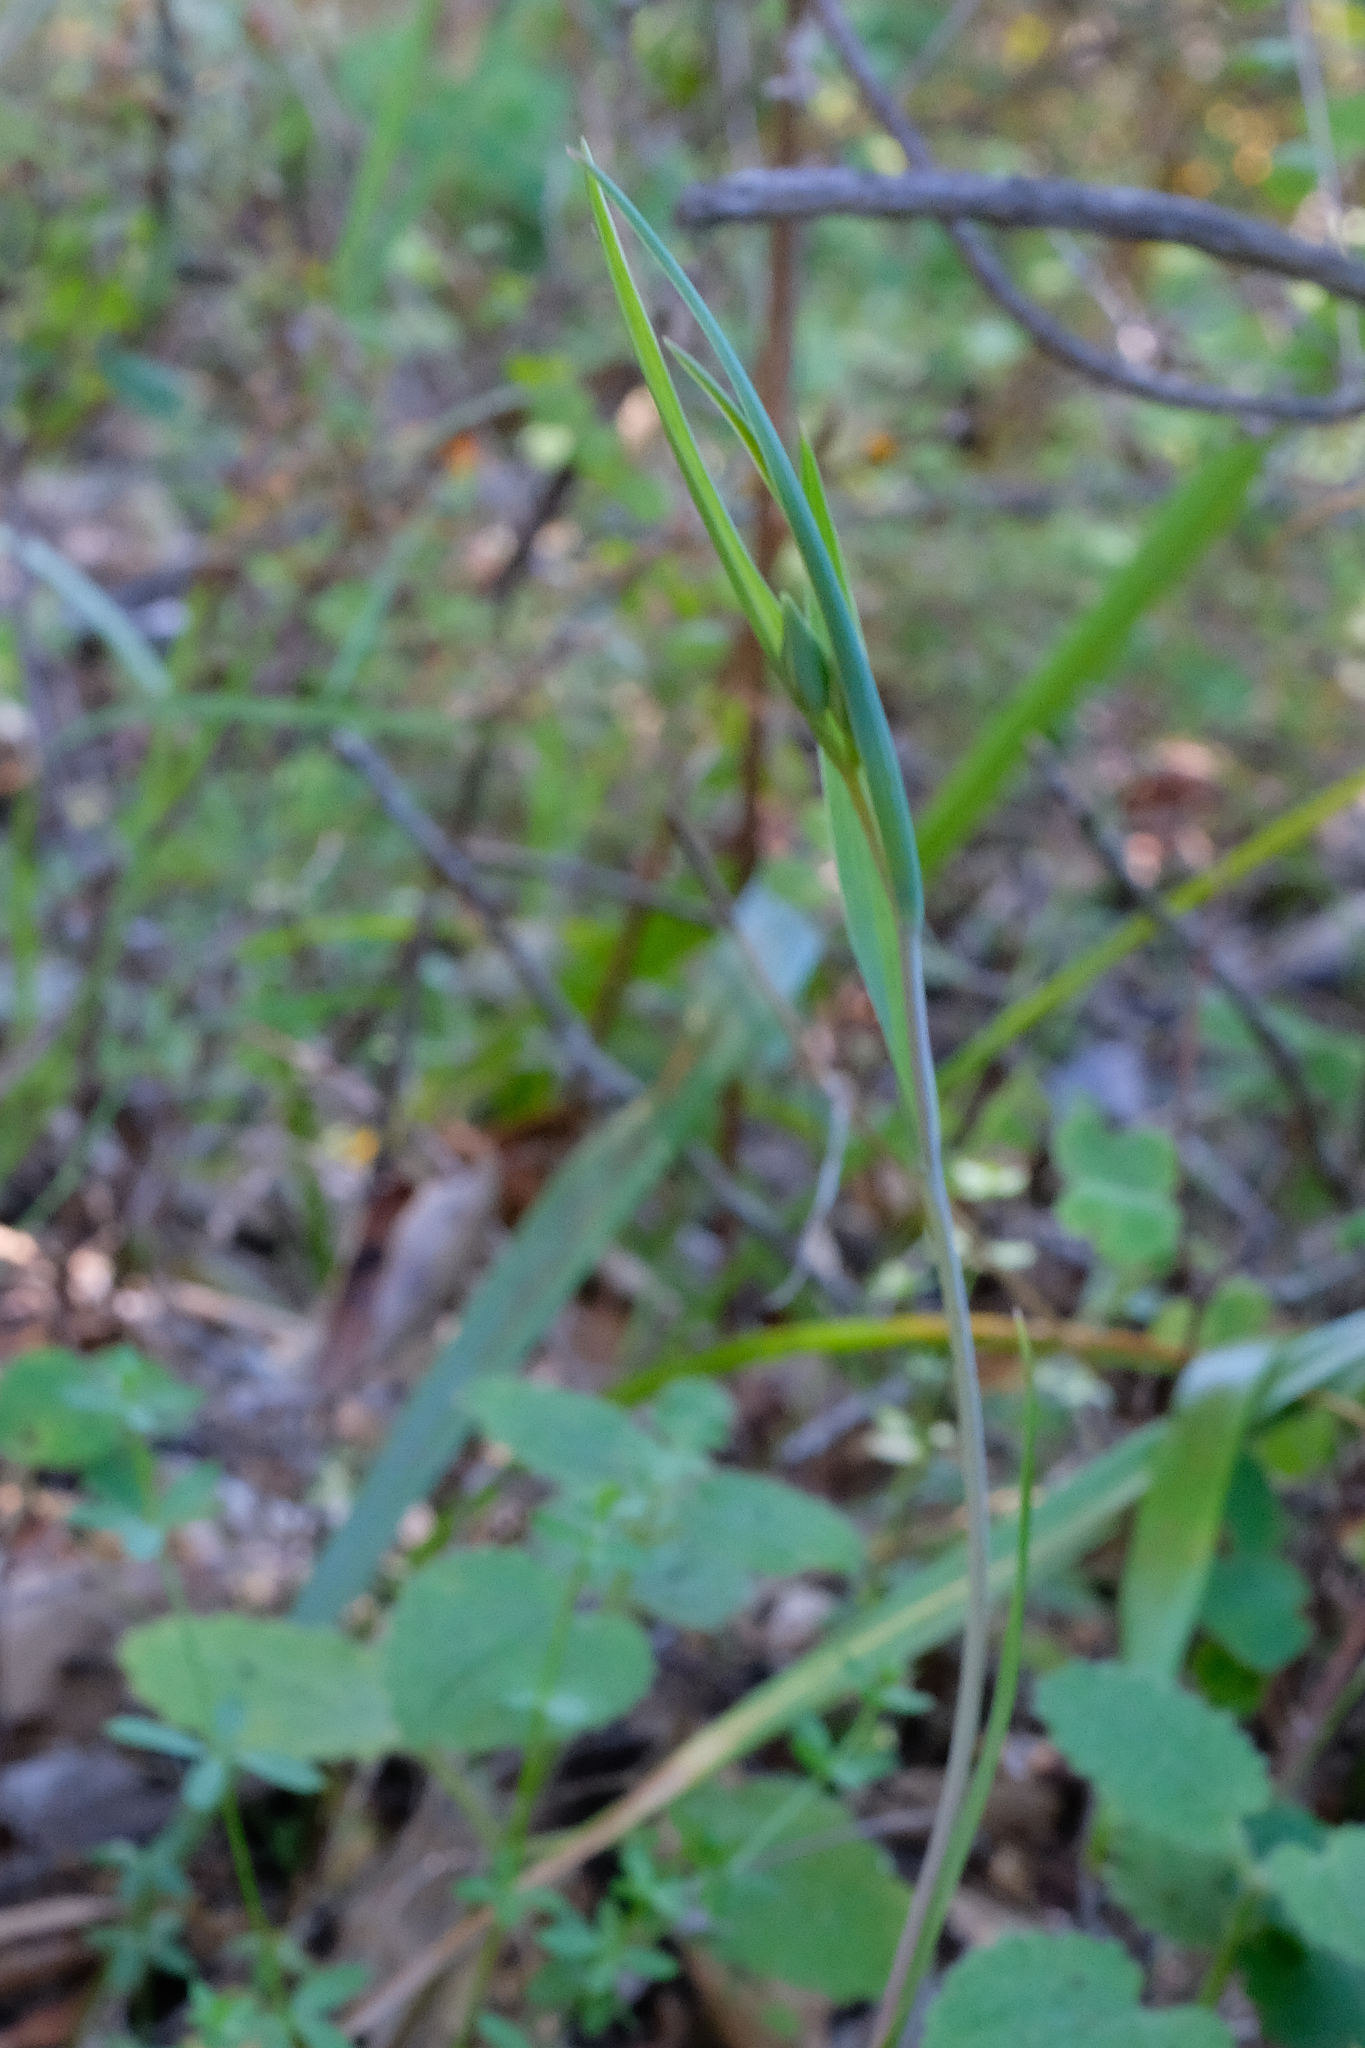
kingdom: Plantae
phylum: Tracheophyta
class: Liliopsida
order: Liliales
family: Liliaceae
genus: Calochortus
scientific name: Calochortus albus
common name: Fairy-lantern
